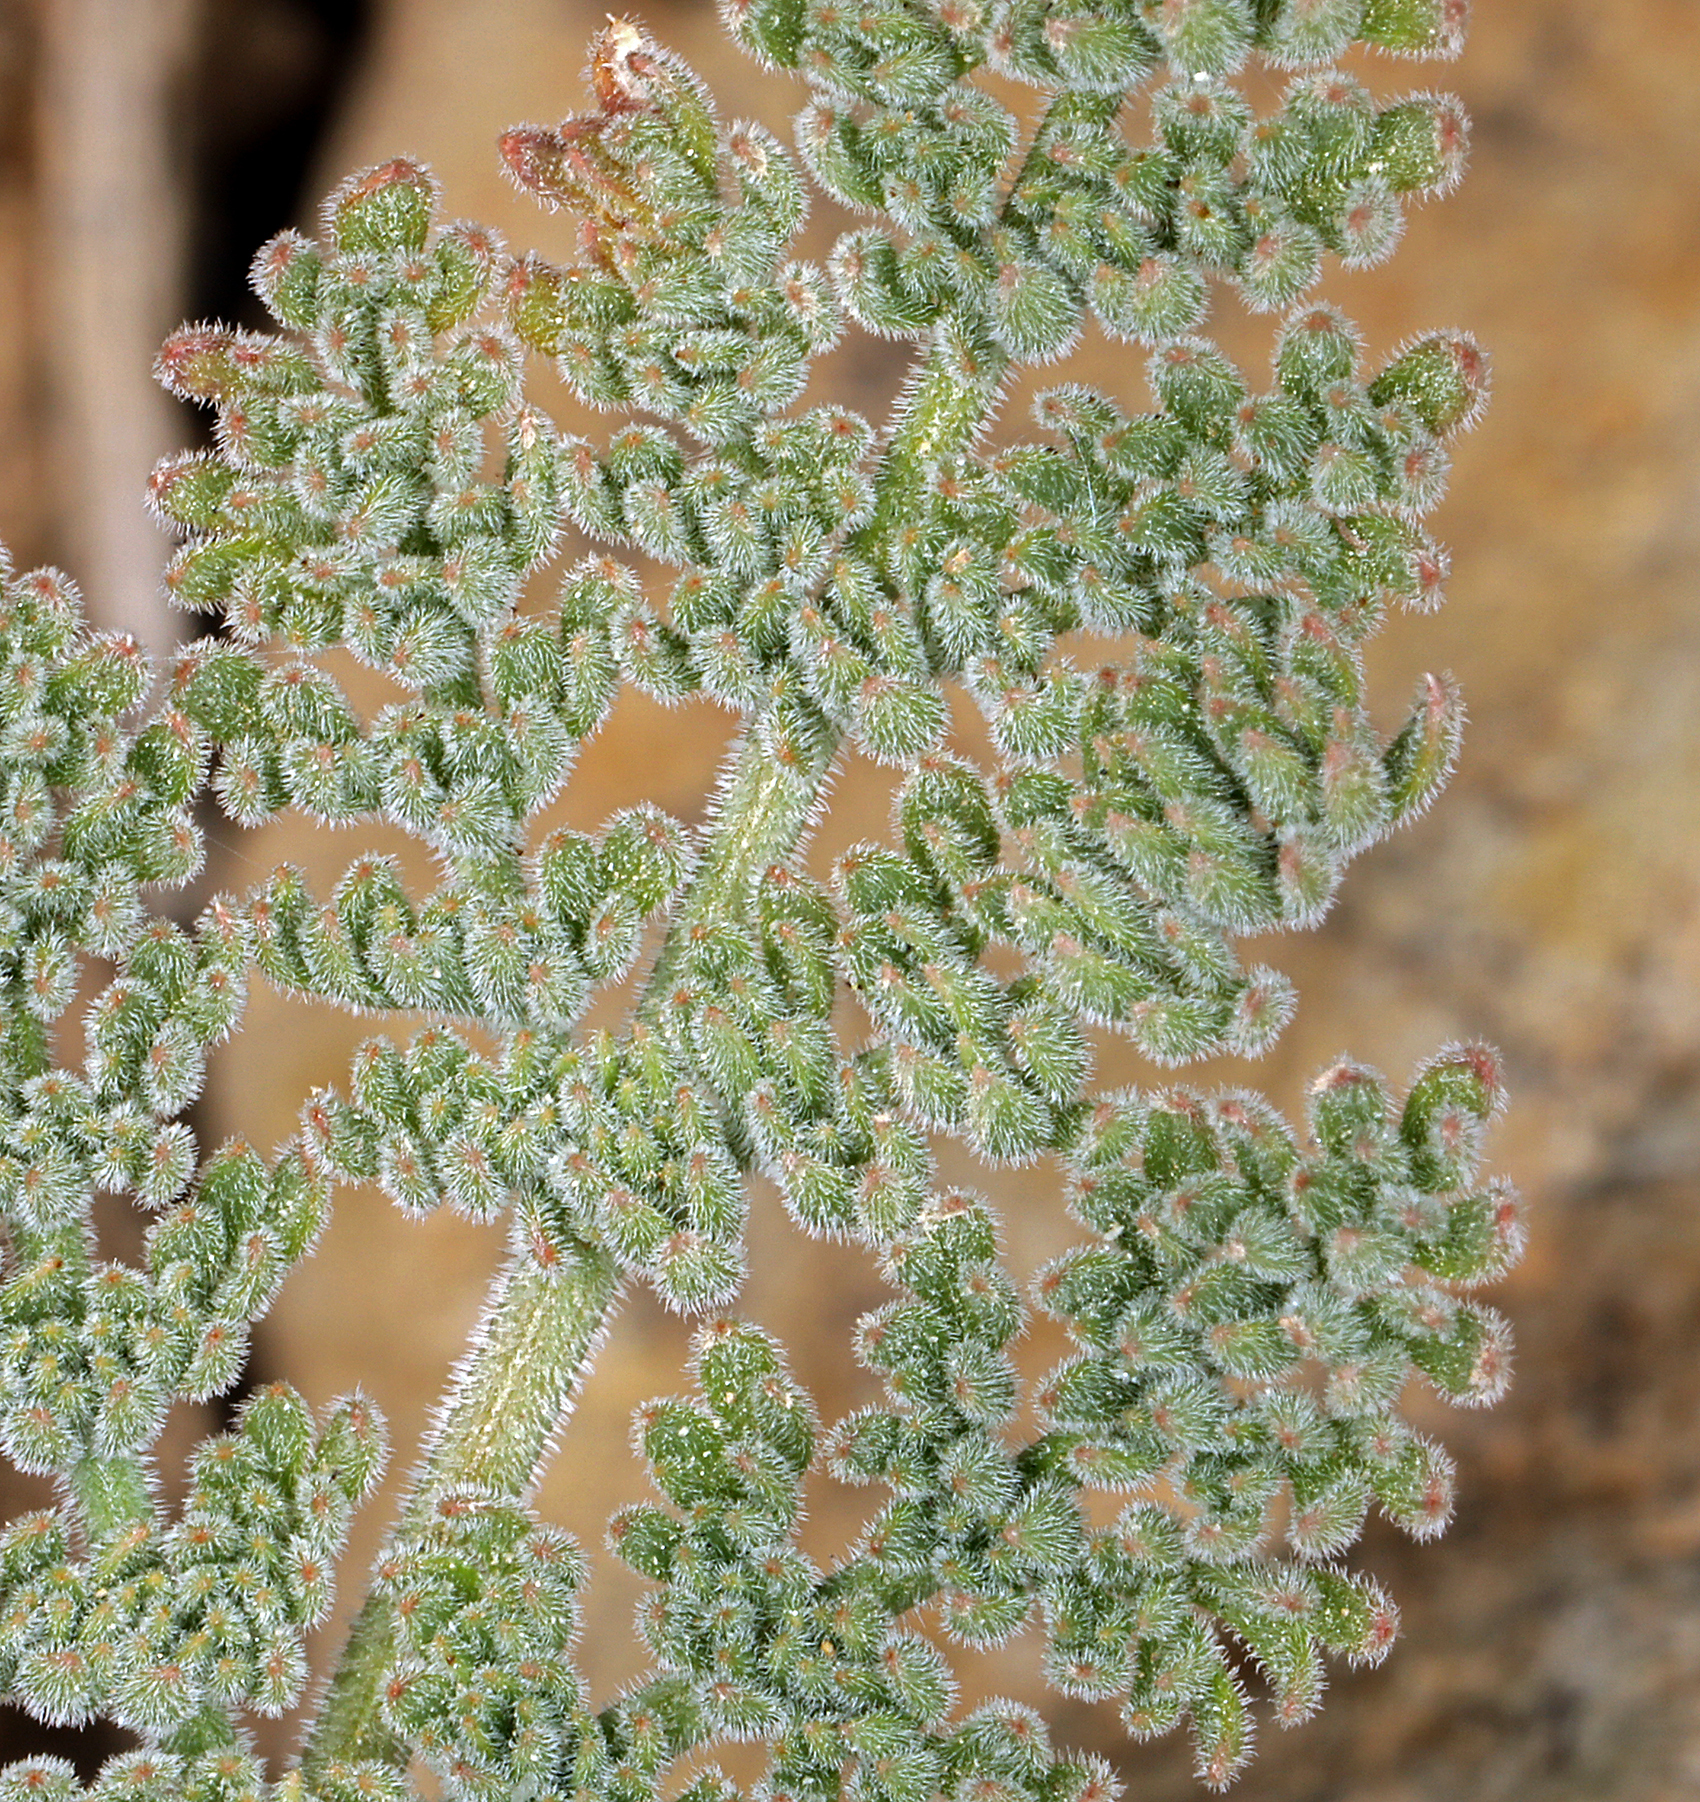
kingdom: Plantae
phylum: Tracheophyta
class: Magnoliopsida
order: Apiales
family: Apiaceae
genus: Lomatium
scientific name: Lomatium foeniculaceum
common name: Desert-parsley
